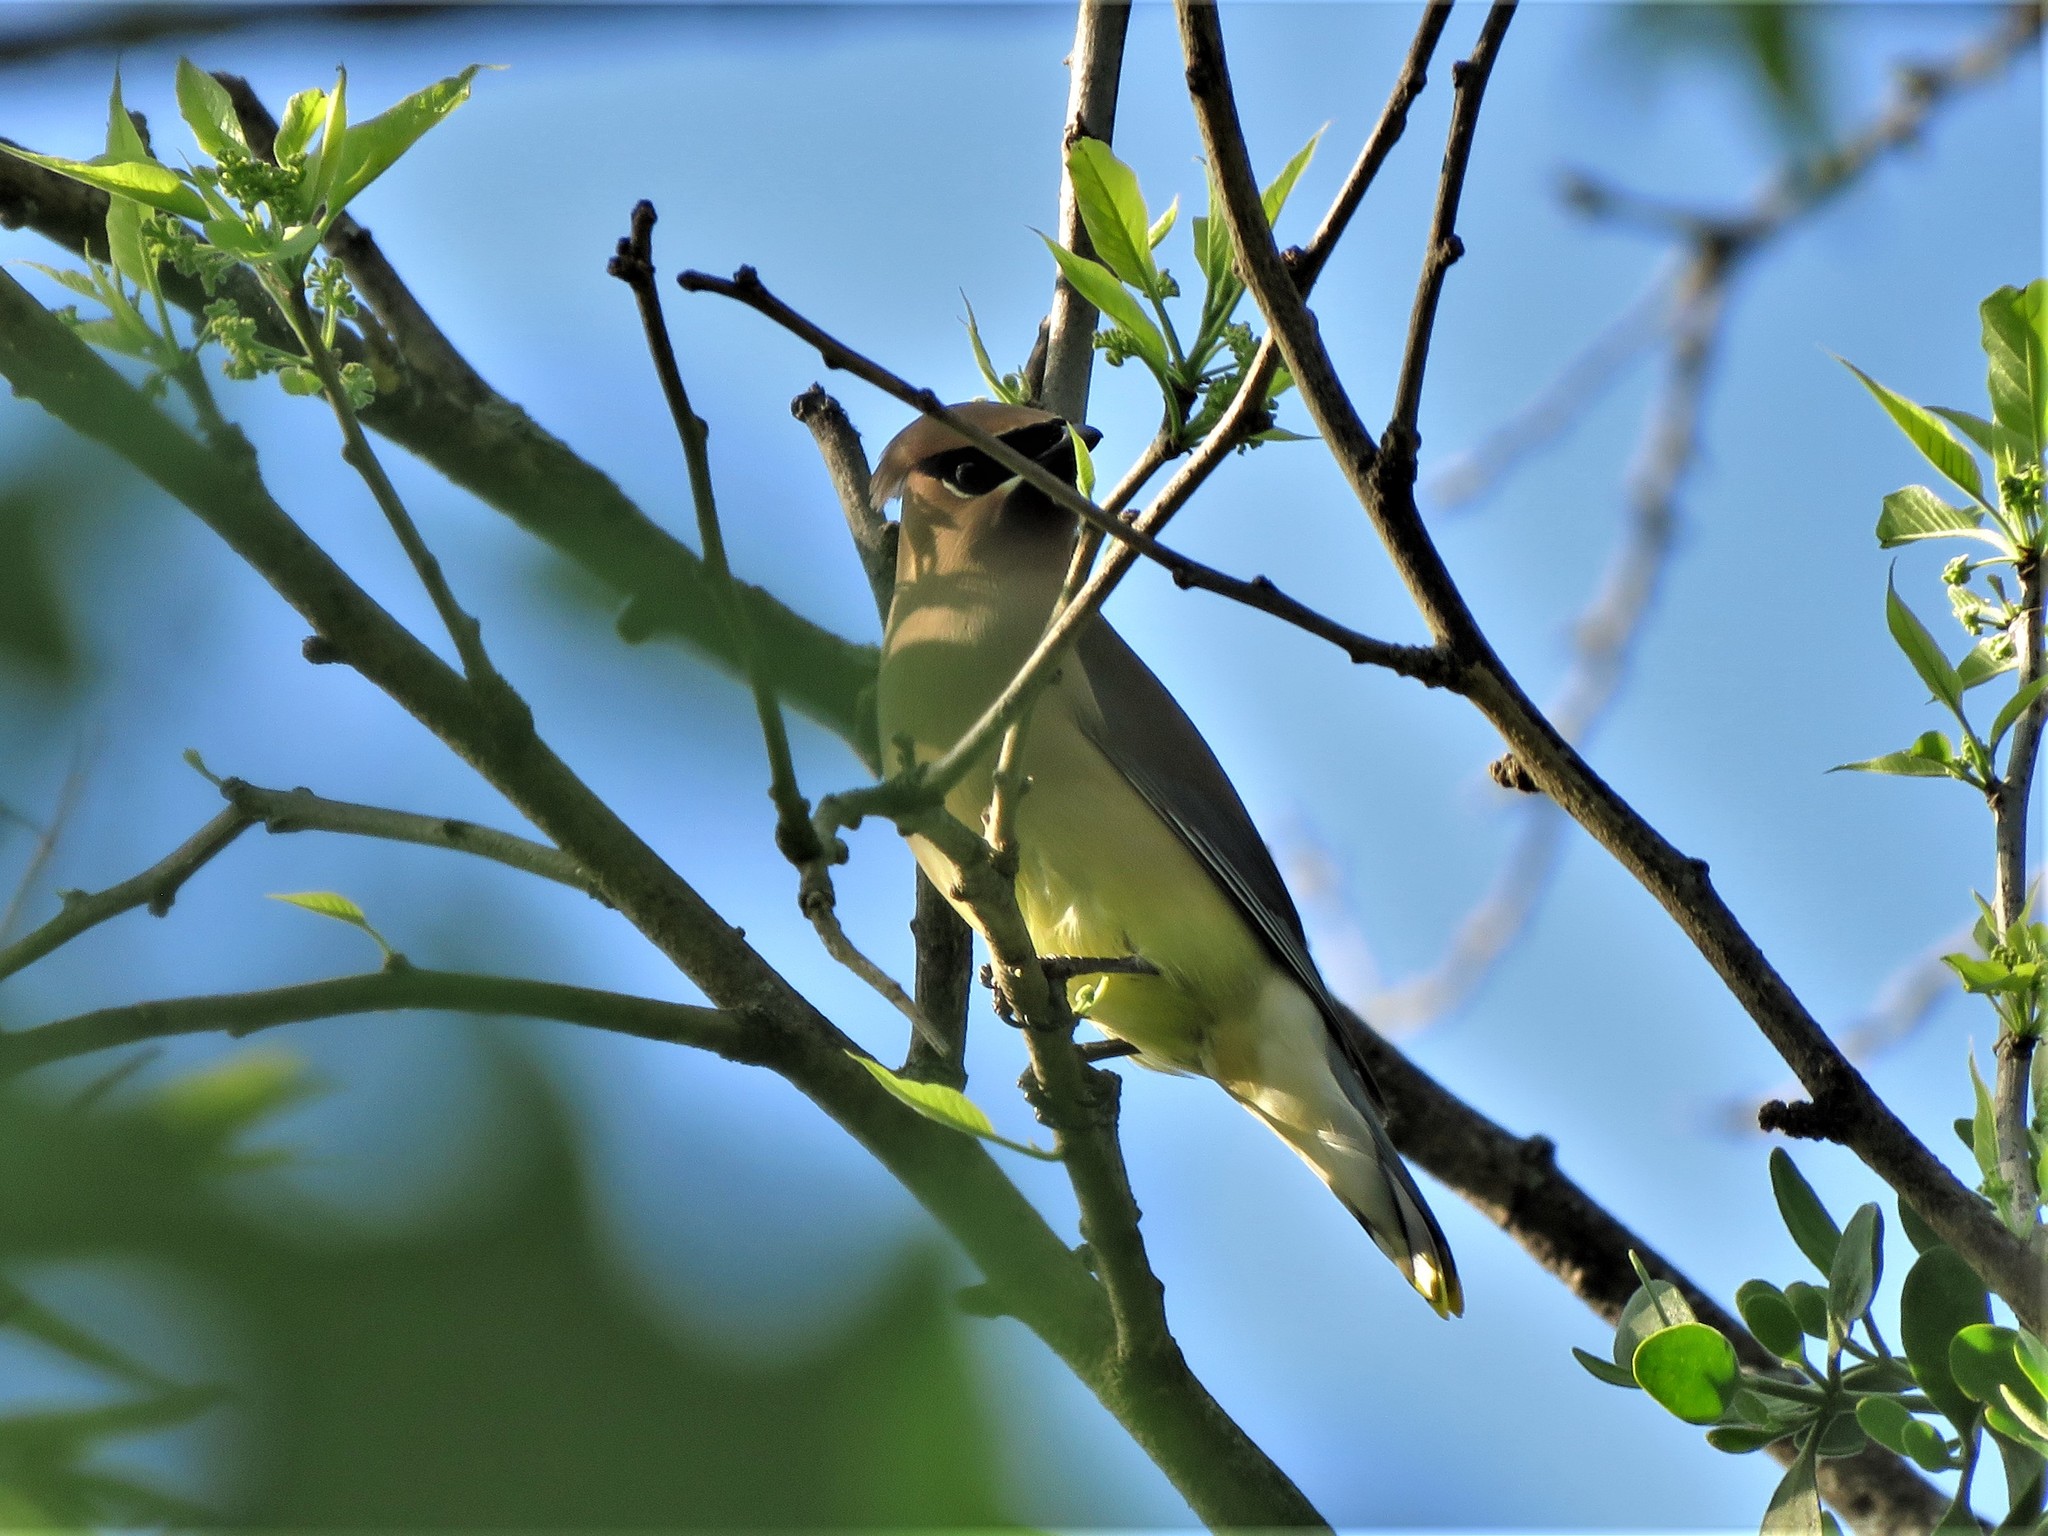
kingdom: Animalia
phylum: Chordata
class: Aves
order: Passeriformes
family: Bombycillidae
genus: Bombycilla
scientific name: Bombycilla cedrorum
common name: Cedar waxwing
